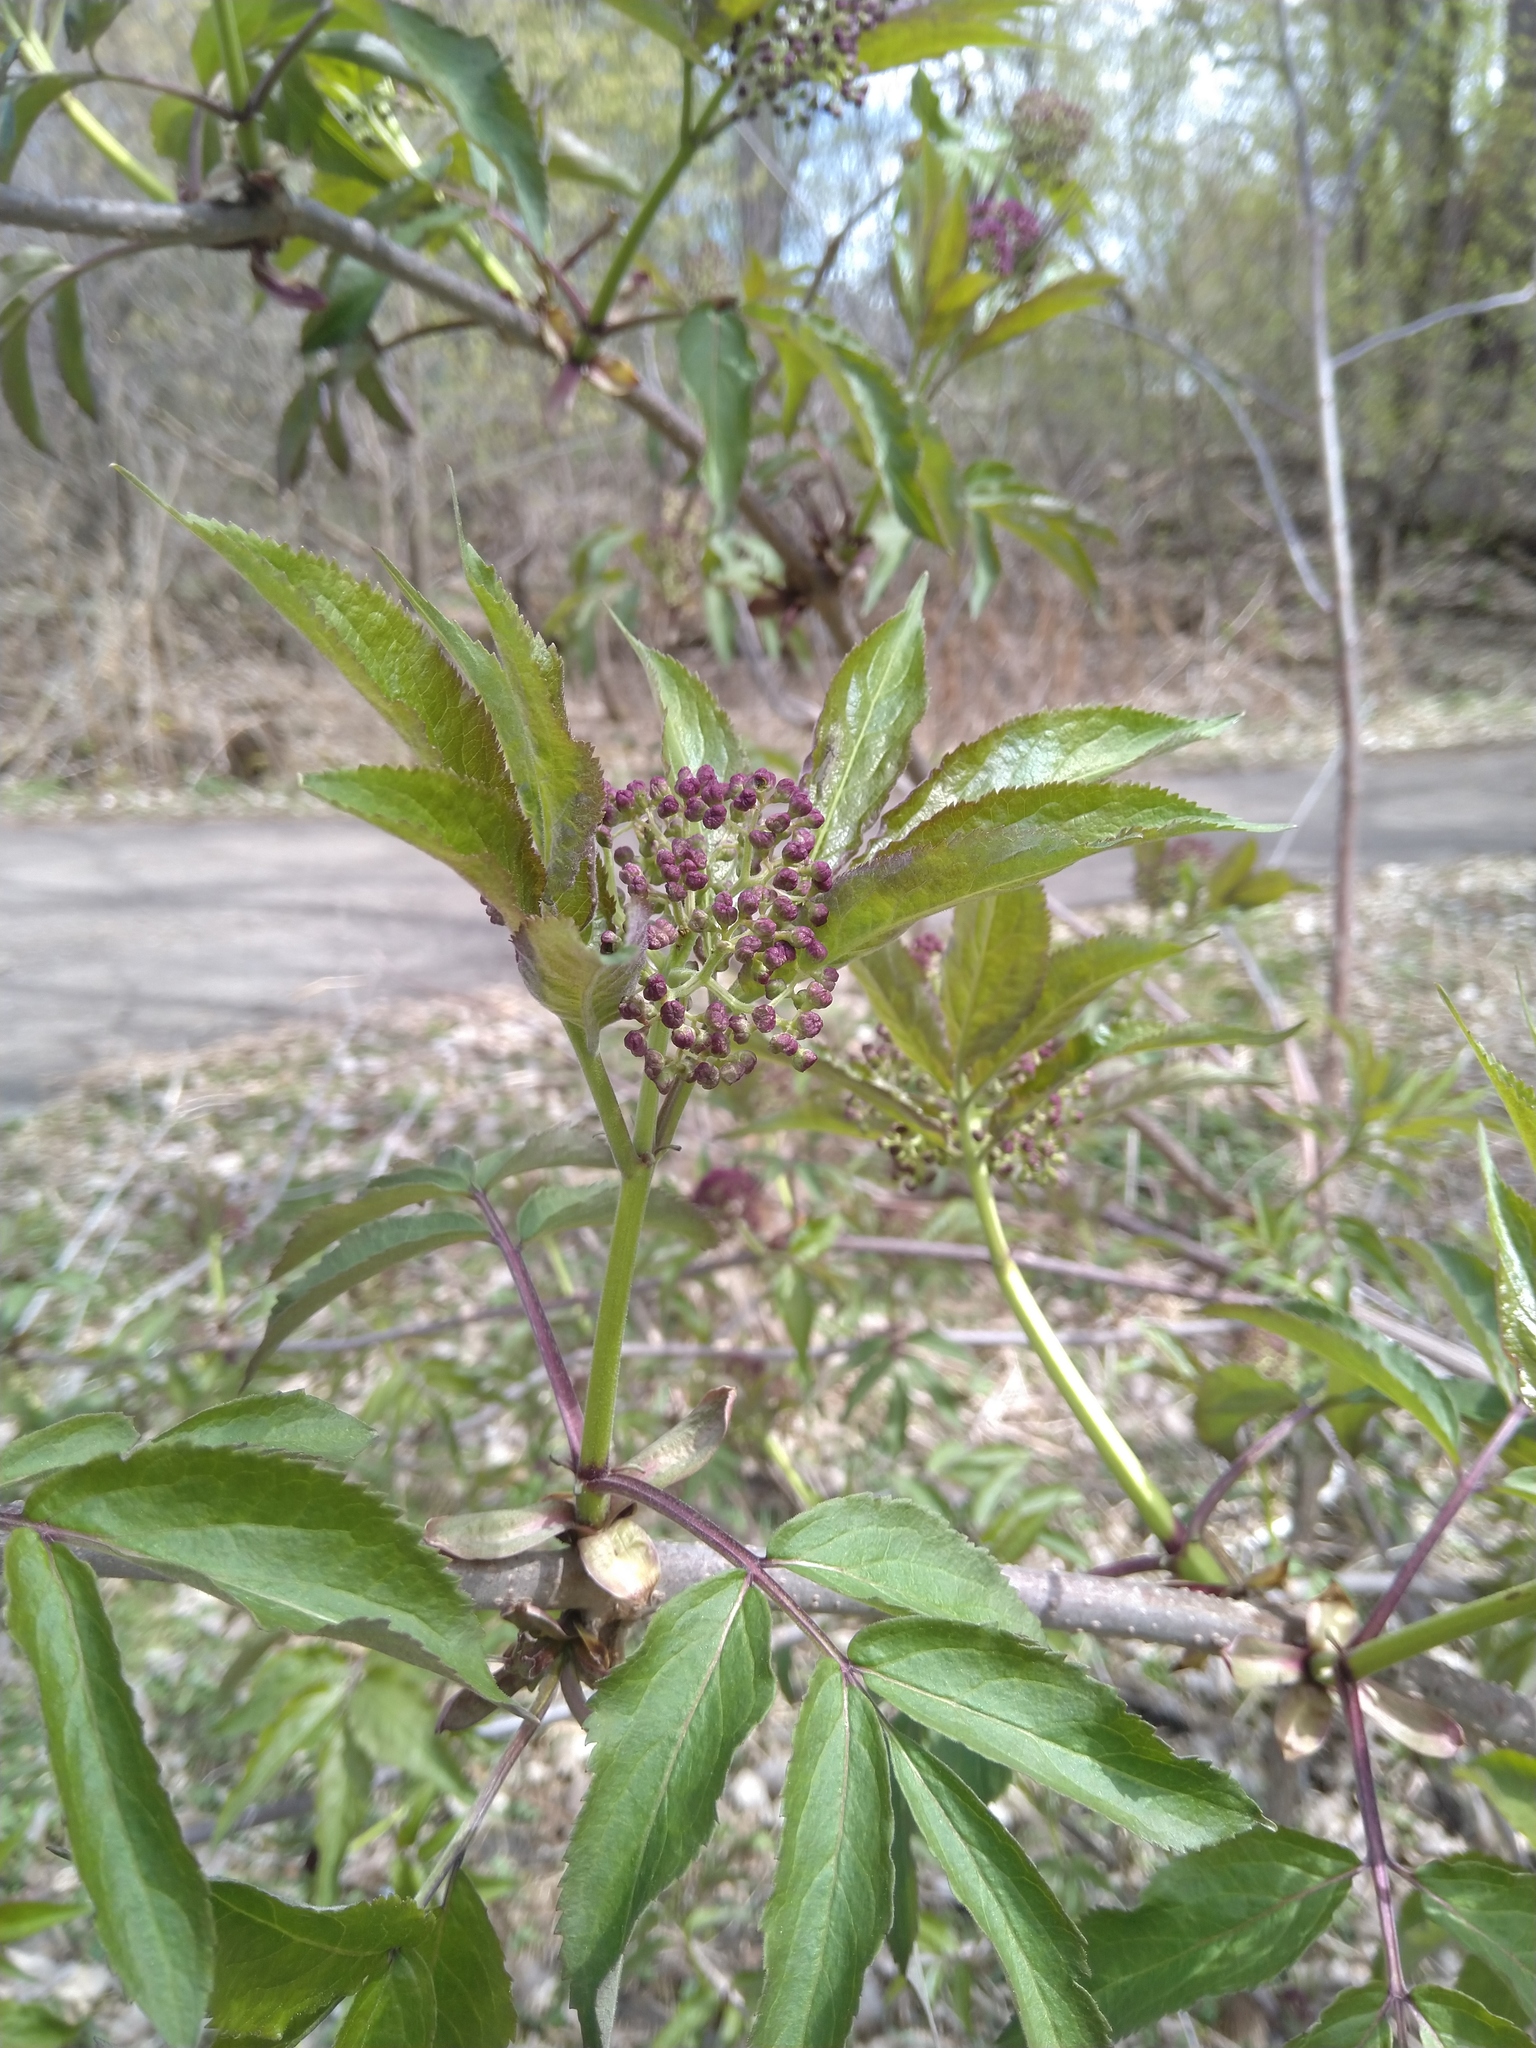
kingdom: Plantae
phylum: Tracheophyta
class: Magnoliopsida
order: Dipsacales
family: Viburnaceae
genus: Sambucus
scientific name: Sambucus racemosa
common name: Red-berried elder
